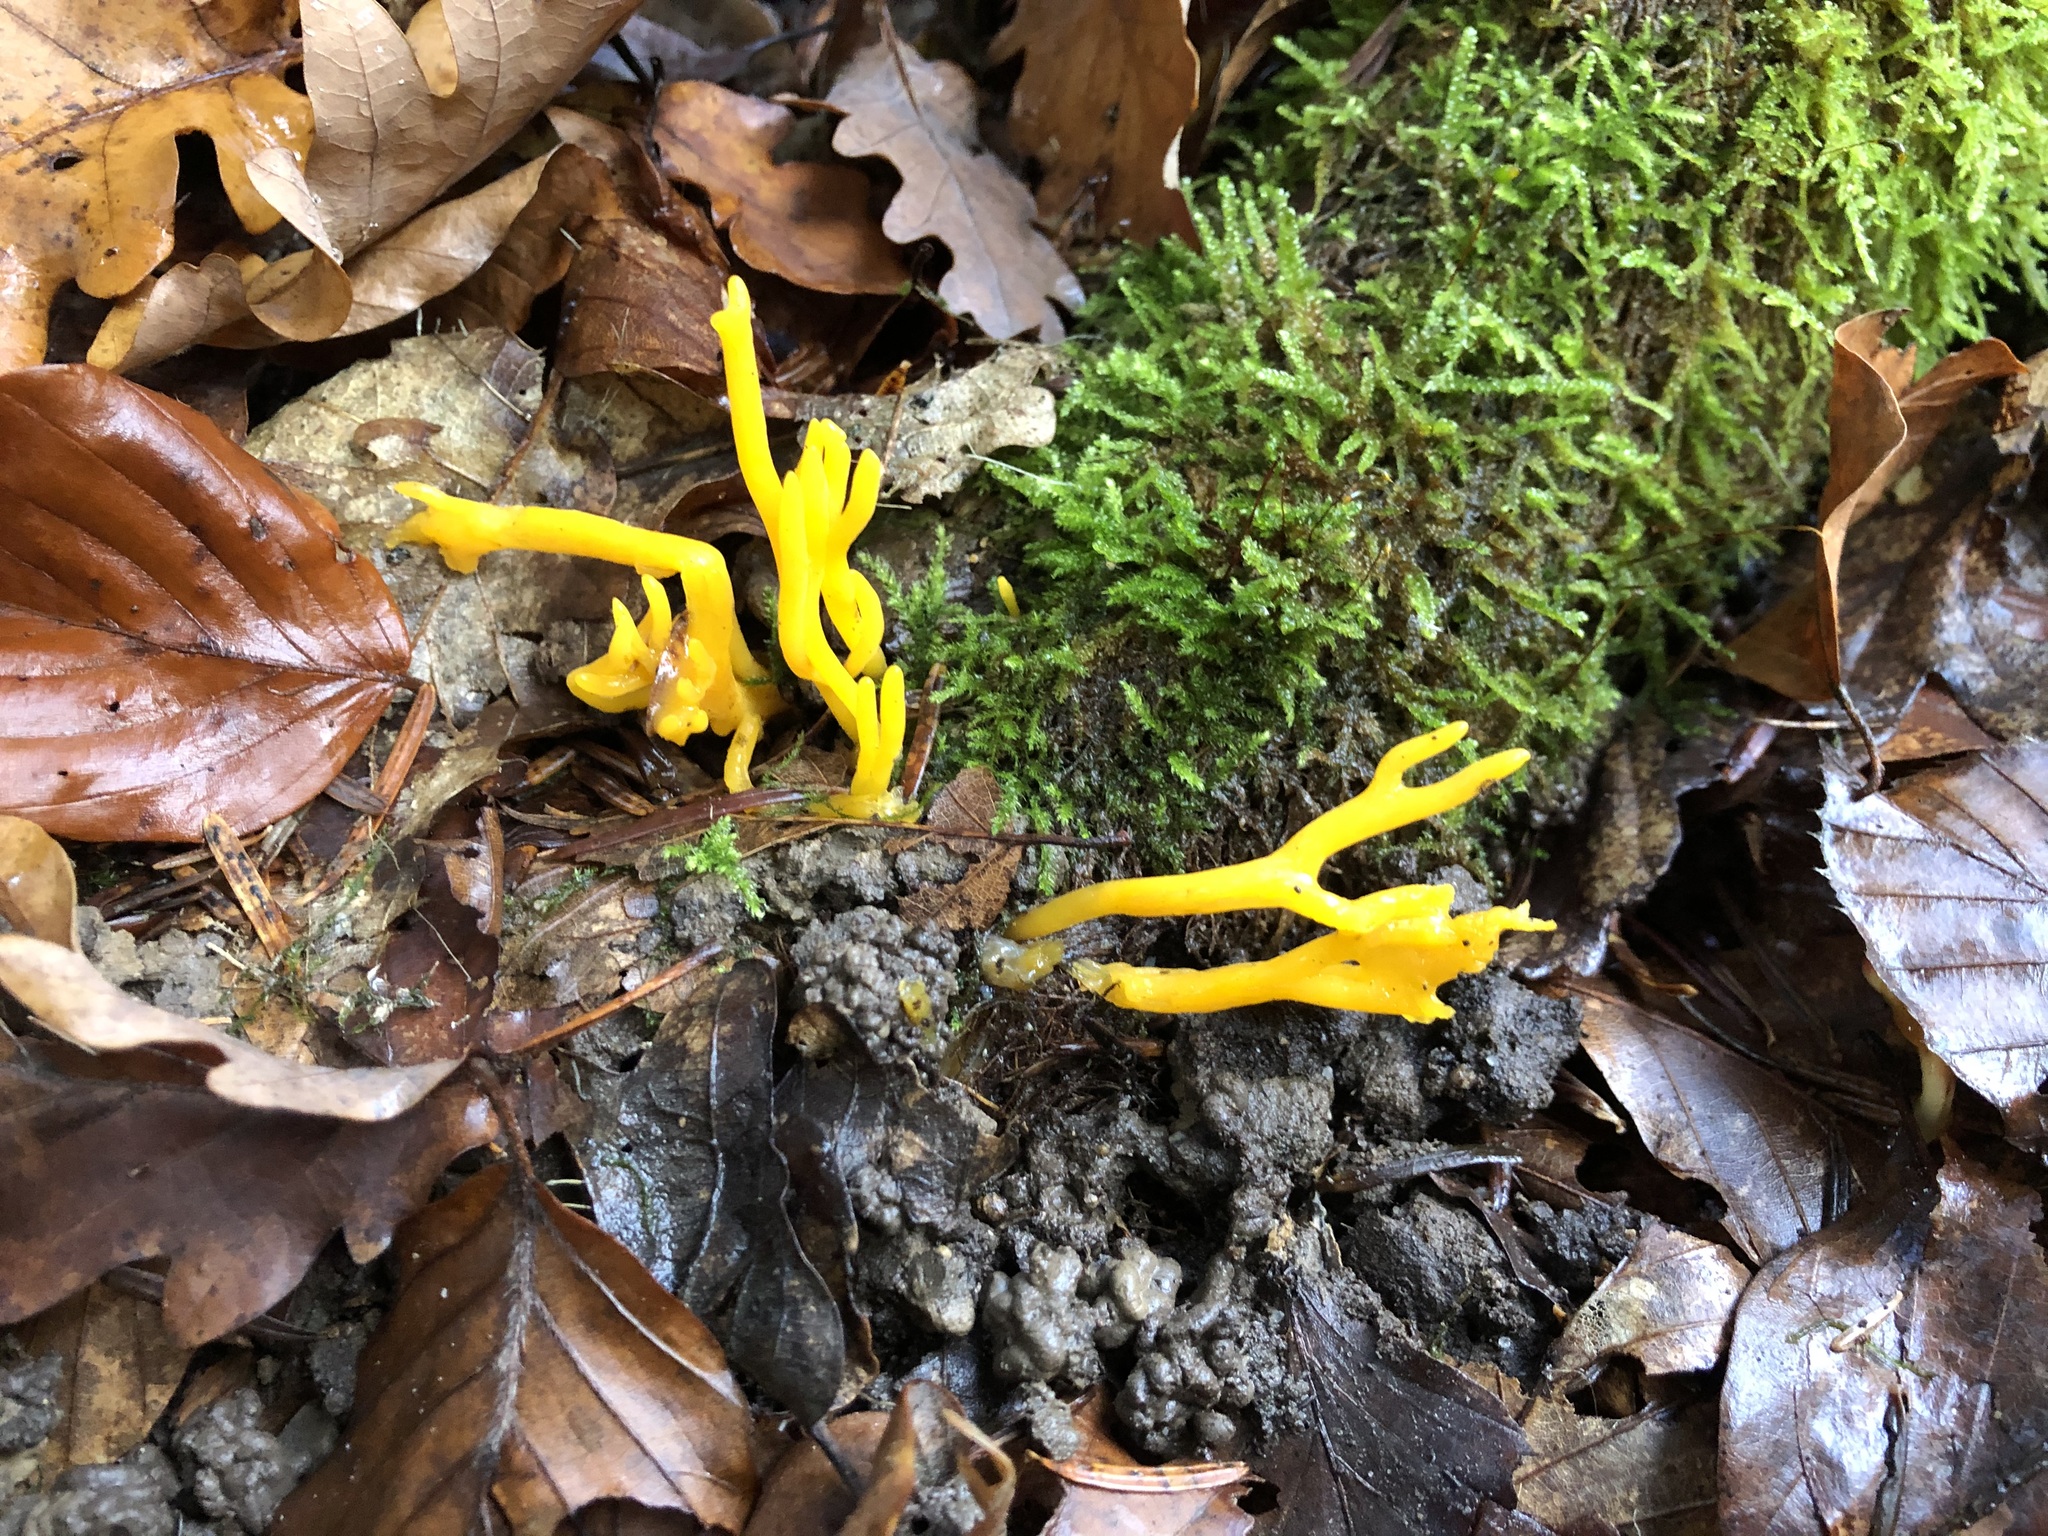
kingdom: Fungi
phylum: Basidiomycota
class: Dacrymycetes
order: Dacrymycetales
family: Dacrymycetaceae
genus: Calocera
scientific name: Calocera viscosa
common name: Yellow stagshorn
